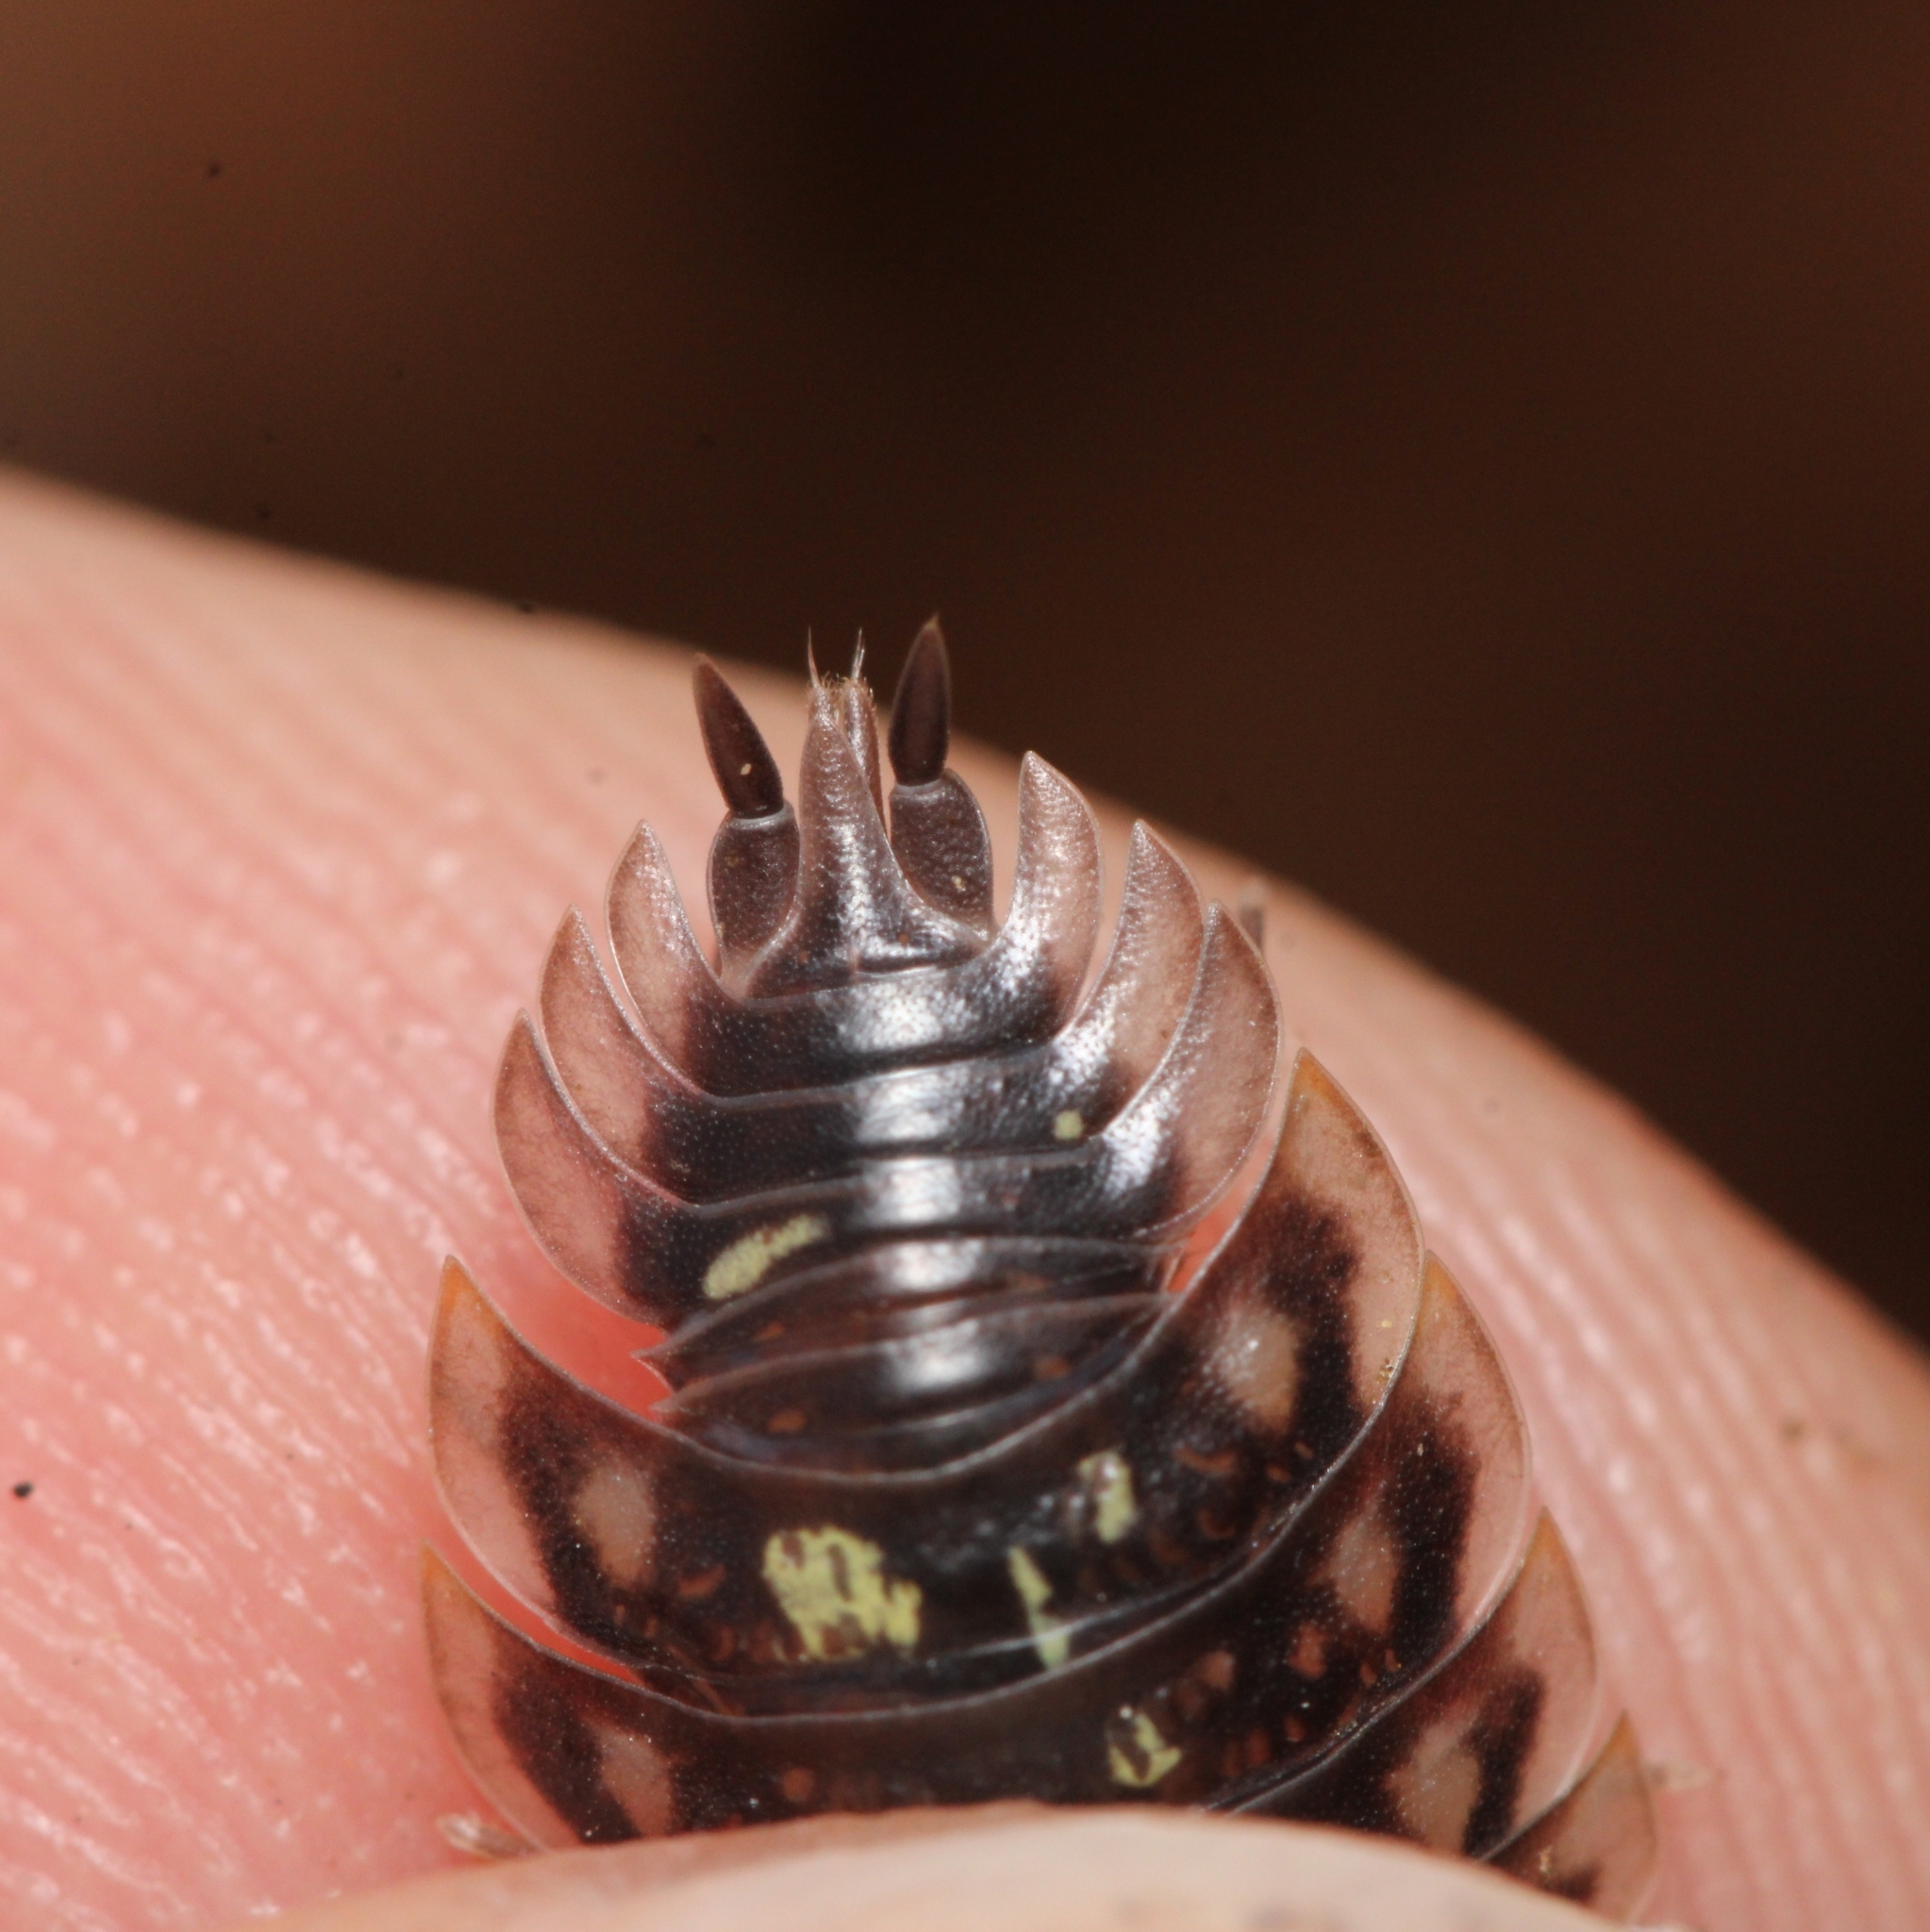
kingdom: Animalia
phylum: Arthropoda
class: Malacostraca
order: Isopoda
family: Oniscidae
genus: Oniscus
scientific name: Oniscus asellus
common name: Common shiny woodlouse
